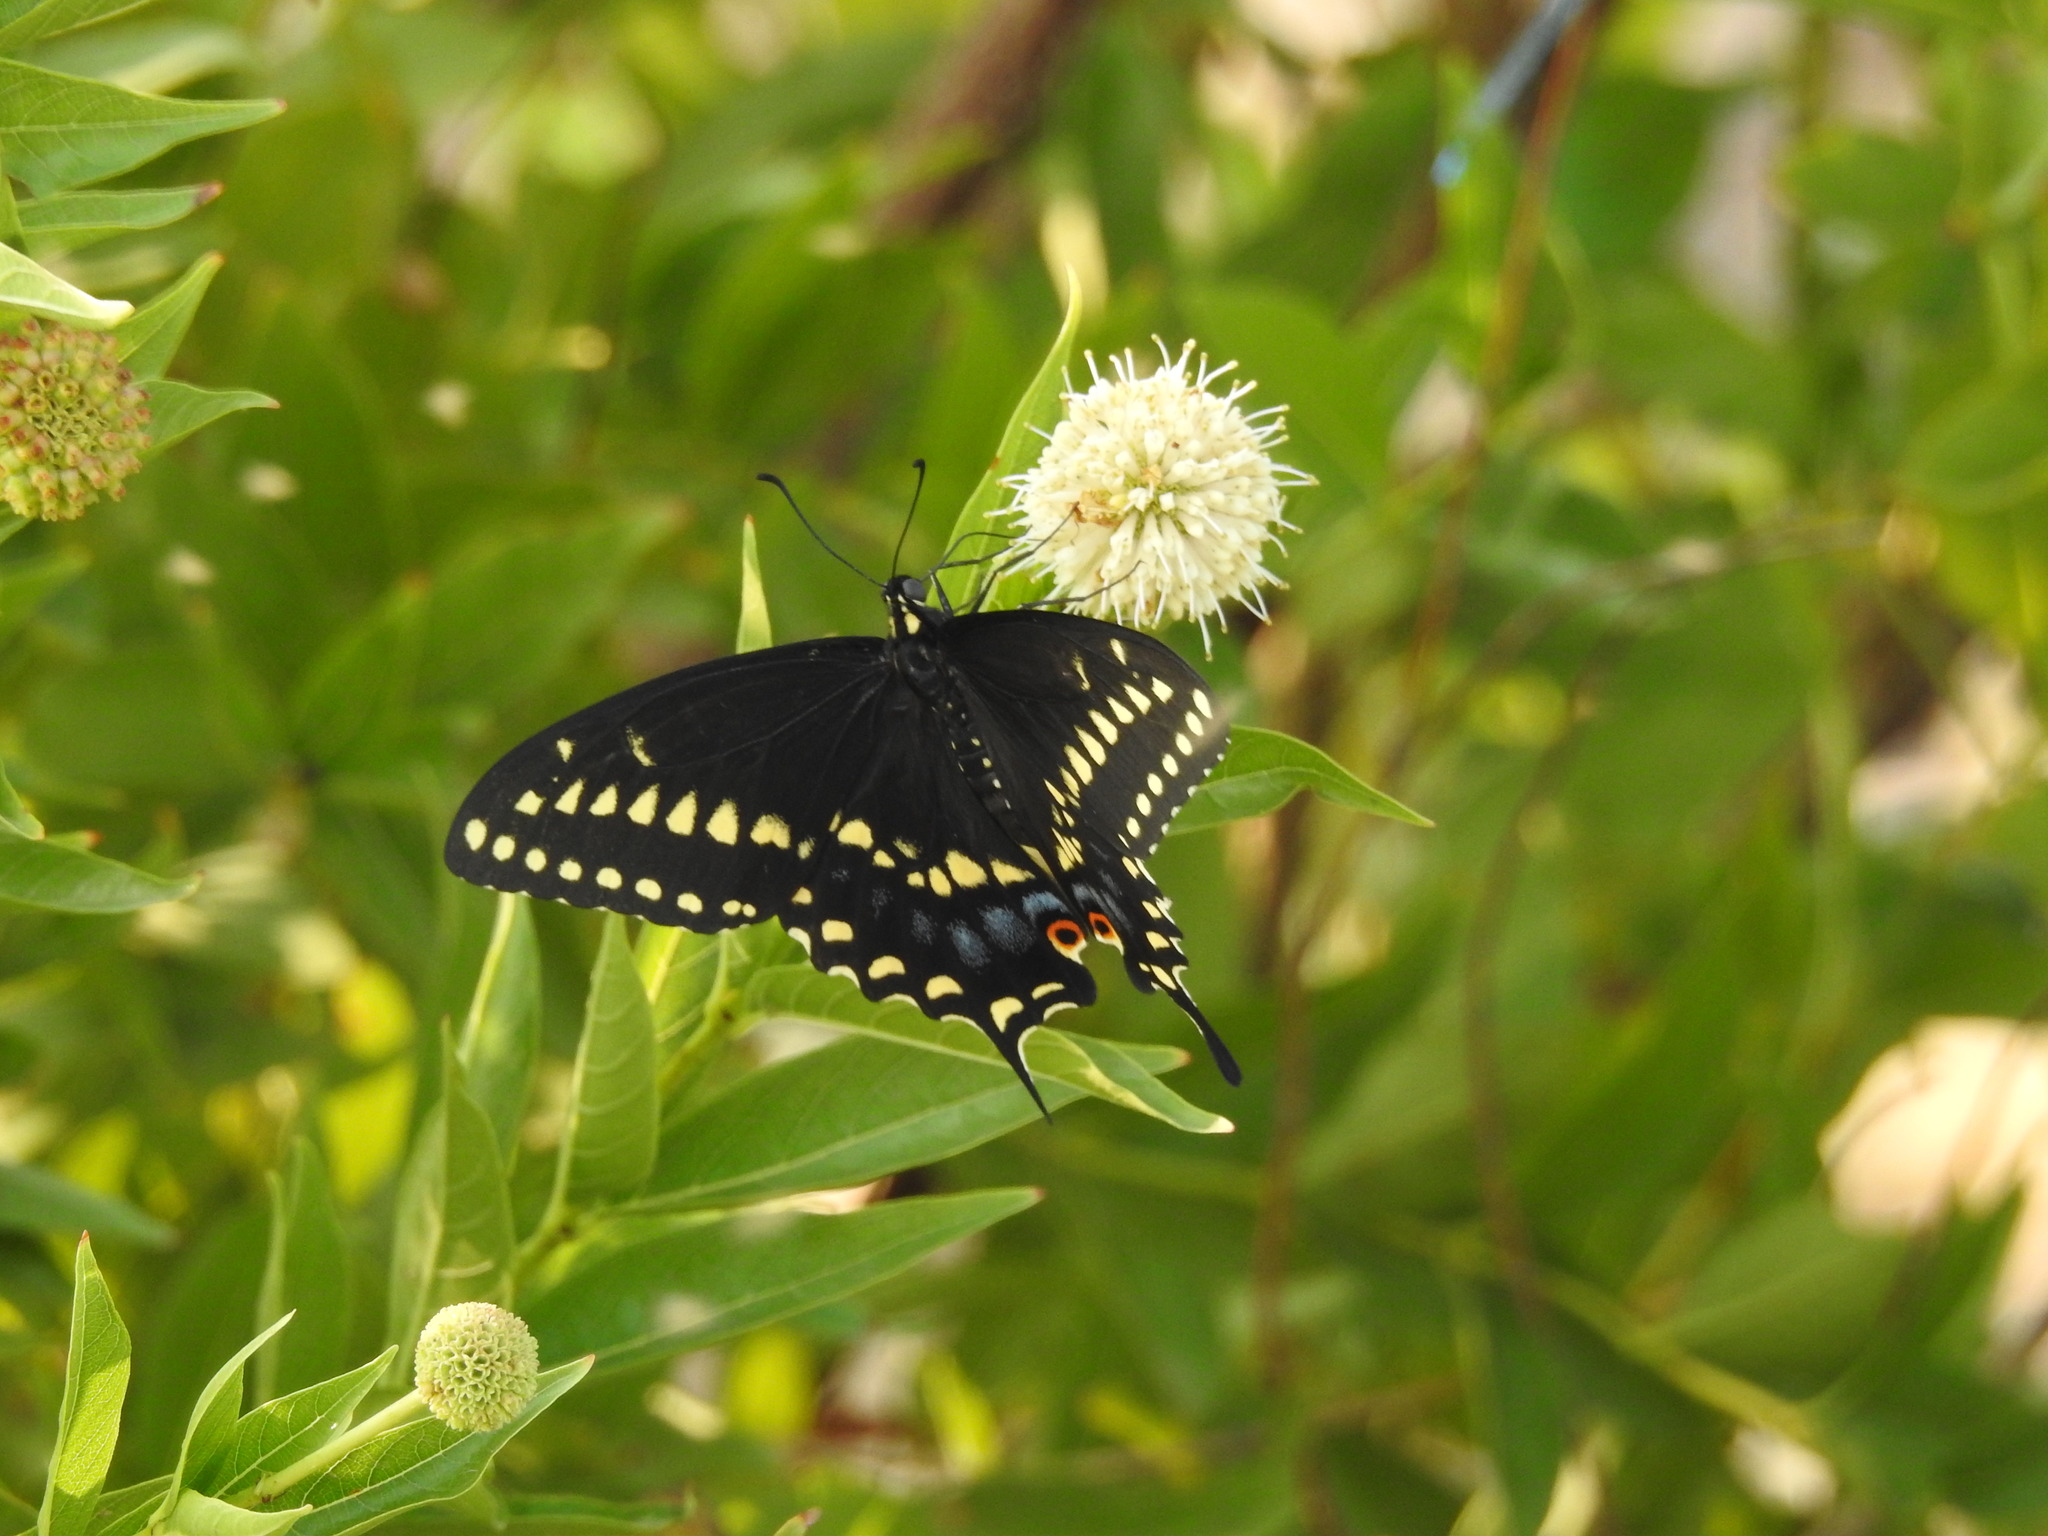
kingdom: Animalia
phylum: Arthropoda
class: Insecta
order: Lepidoptera
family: Papilionidae
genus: Papilio
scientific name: Papilio polyxenes
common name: Black swallowtail
